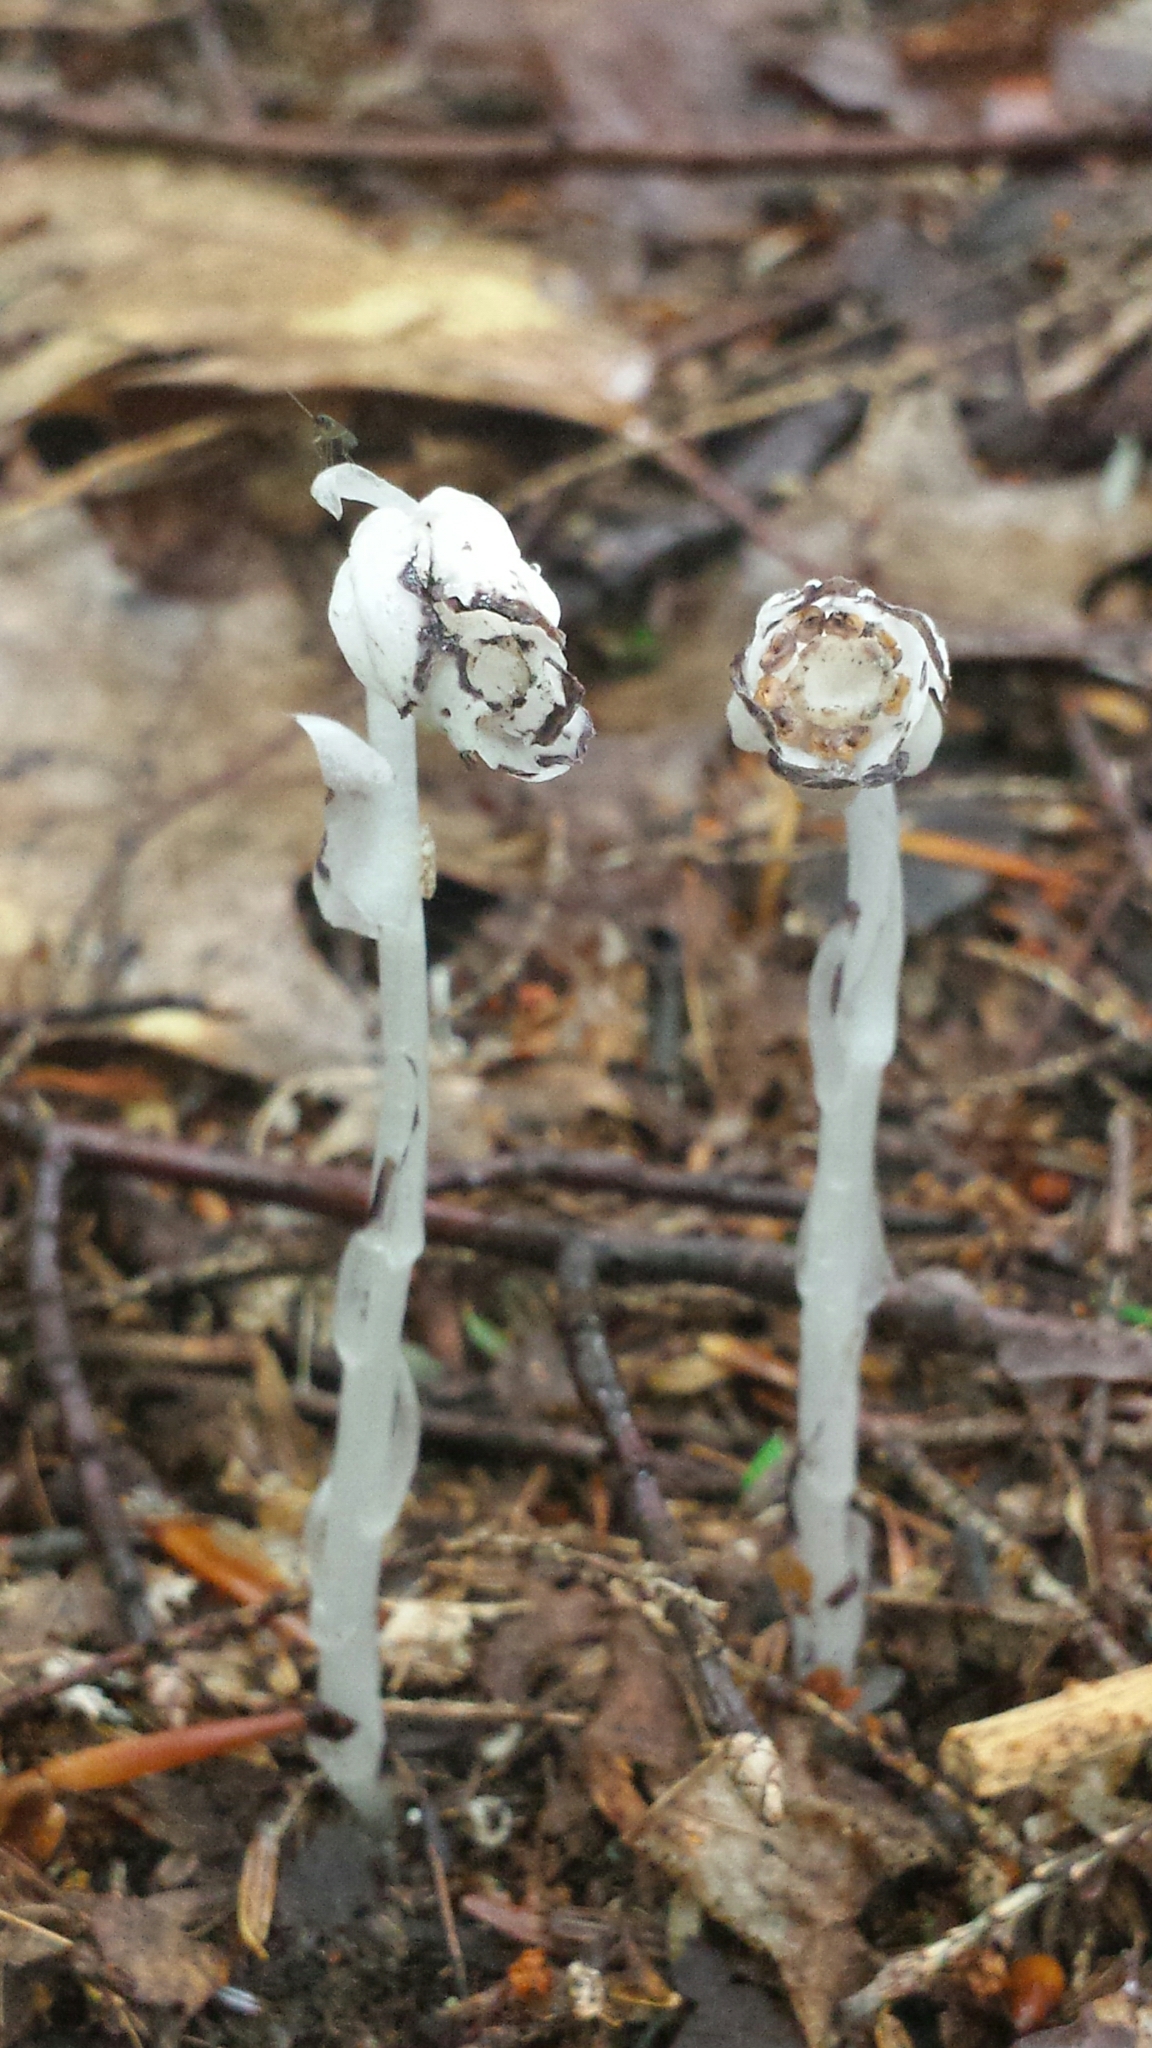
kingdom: Plantae
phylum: Tracheophyta
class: Magnoliopsida
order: Ericales
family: Ericaceae
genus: Monotropa
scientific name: Monotropa uniflora
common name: Convulsion root
